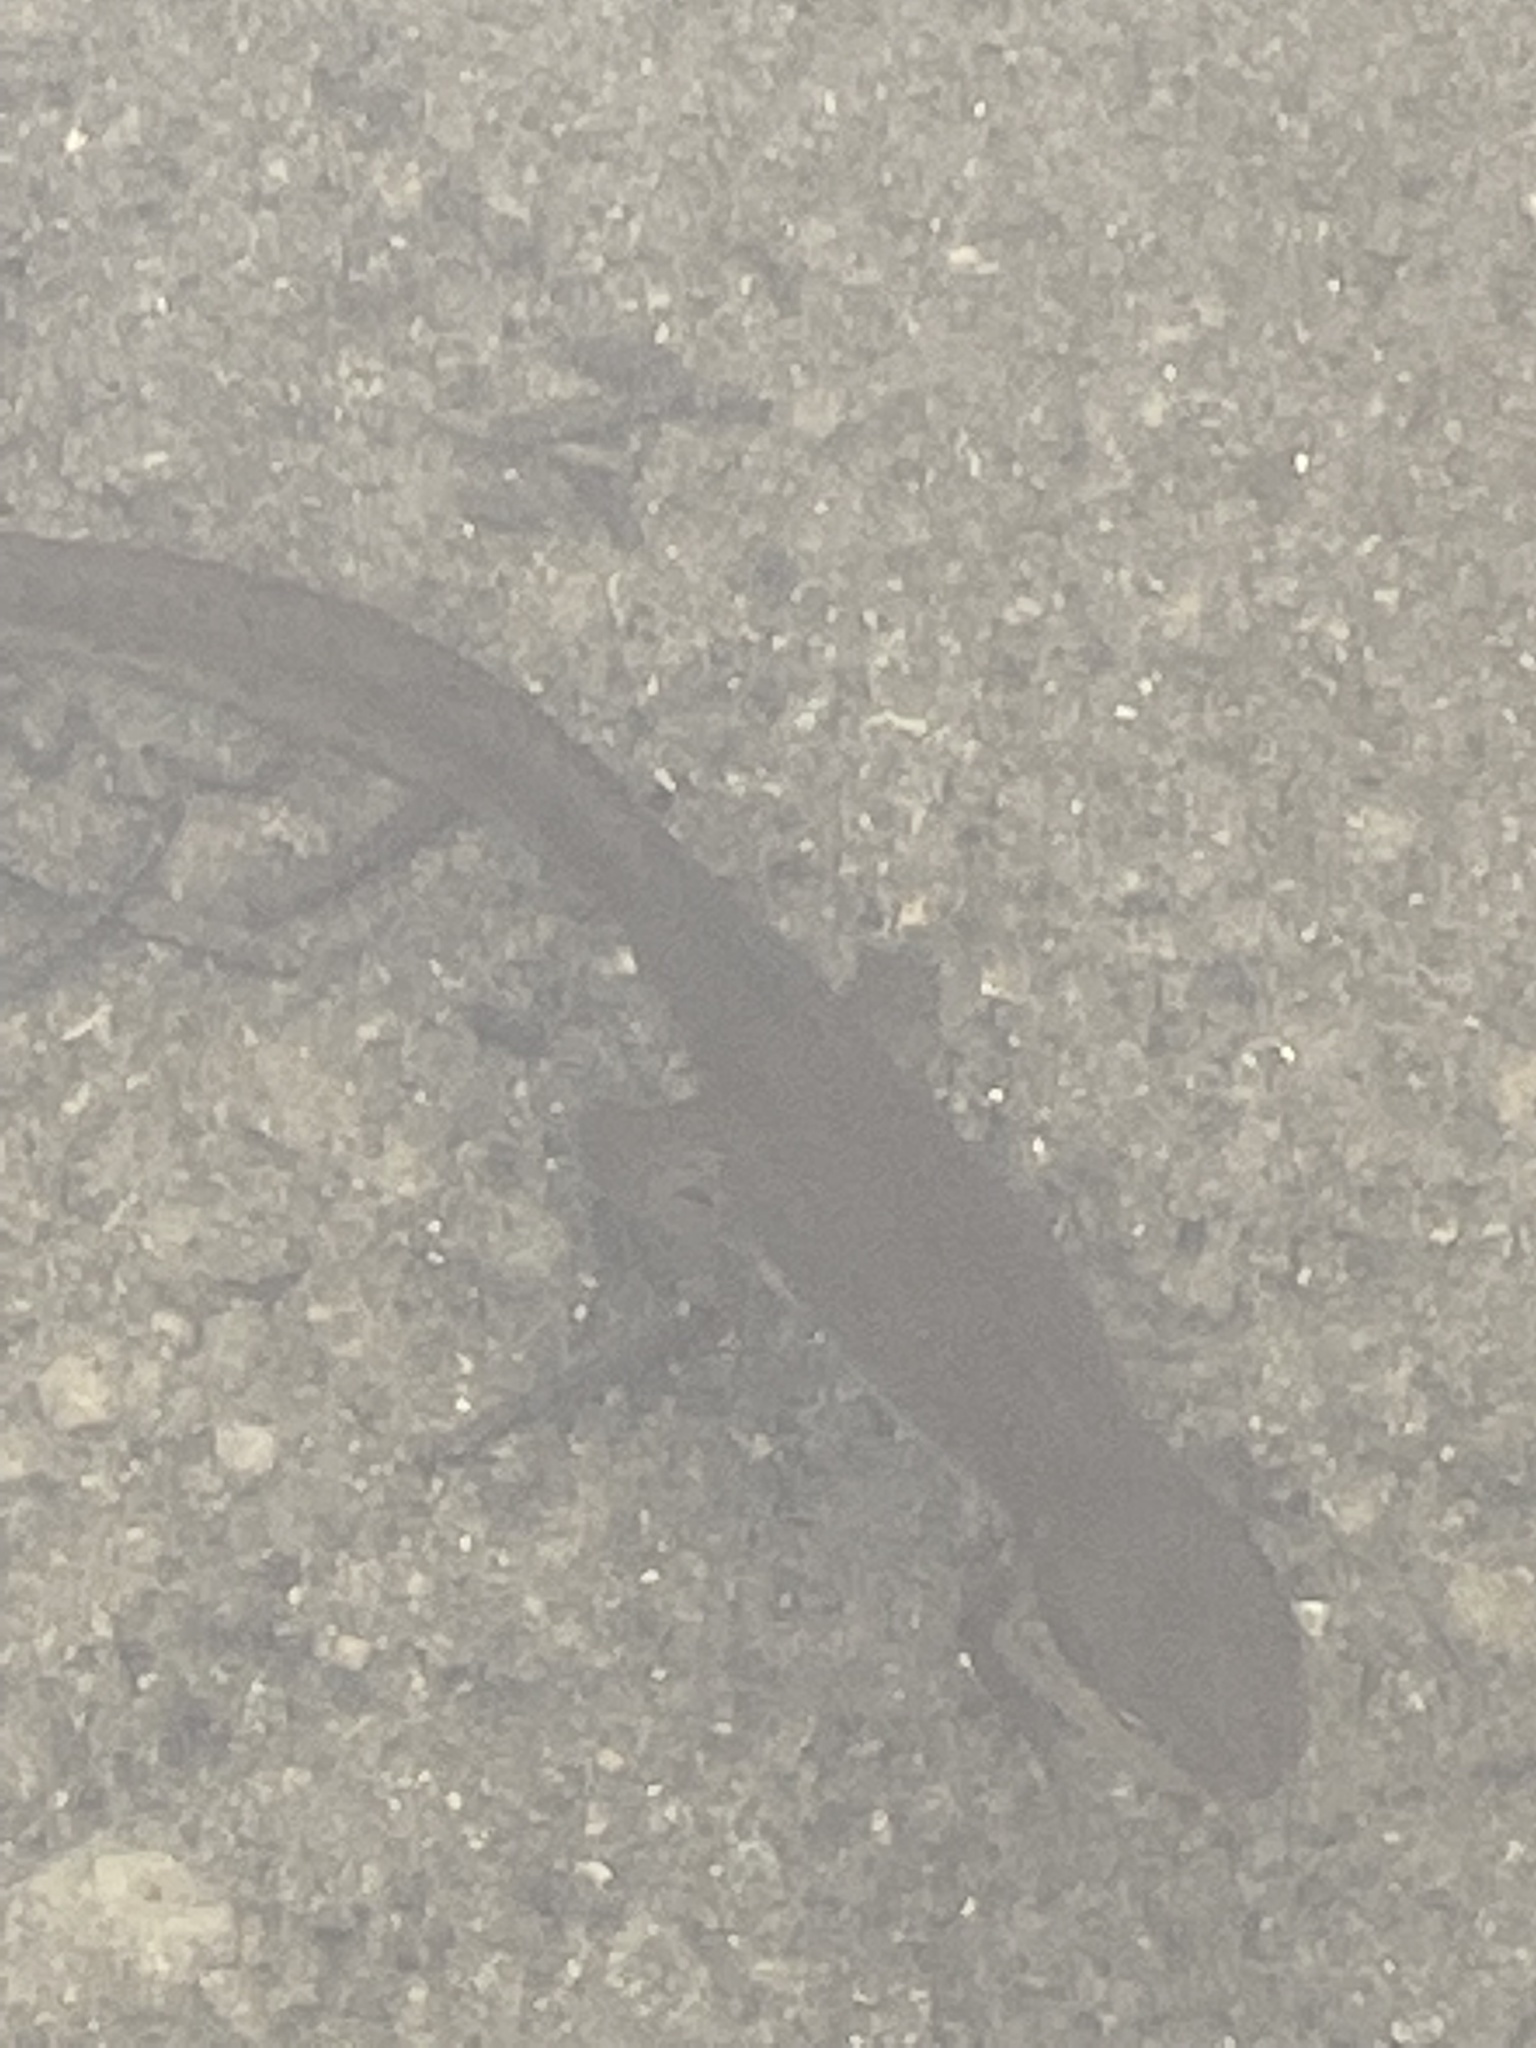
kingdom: Animalia
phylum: Chordata
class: Amphibia
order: Caudata
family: Salamandridae
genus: Notophthalmus
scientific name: Notophthalmus viridescens
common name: Eastern newt
